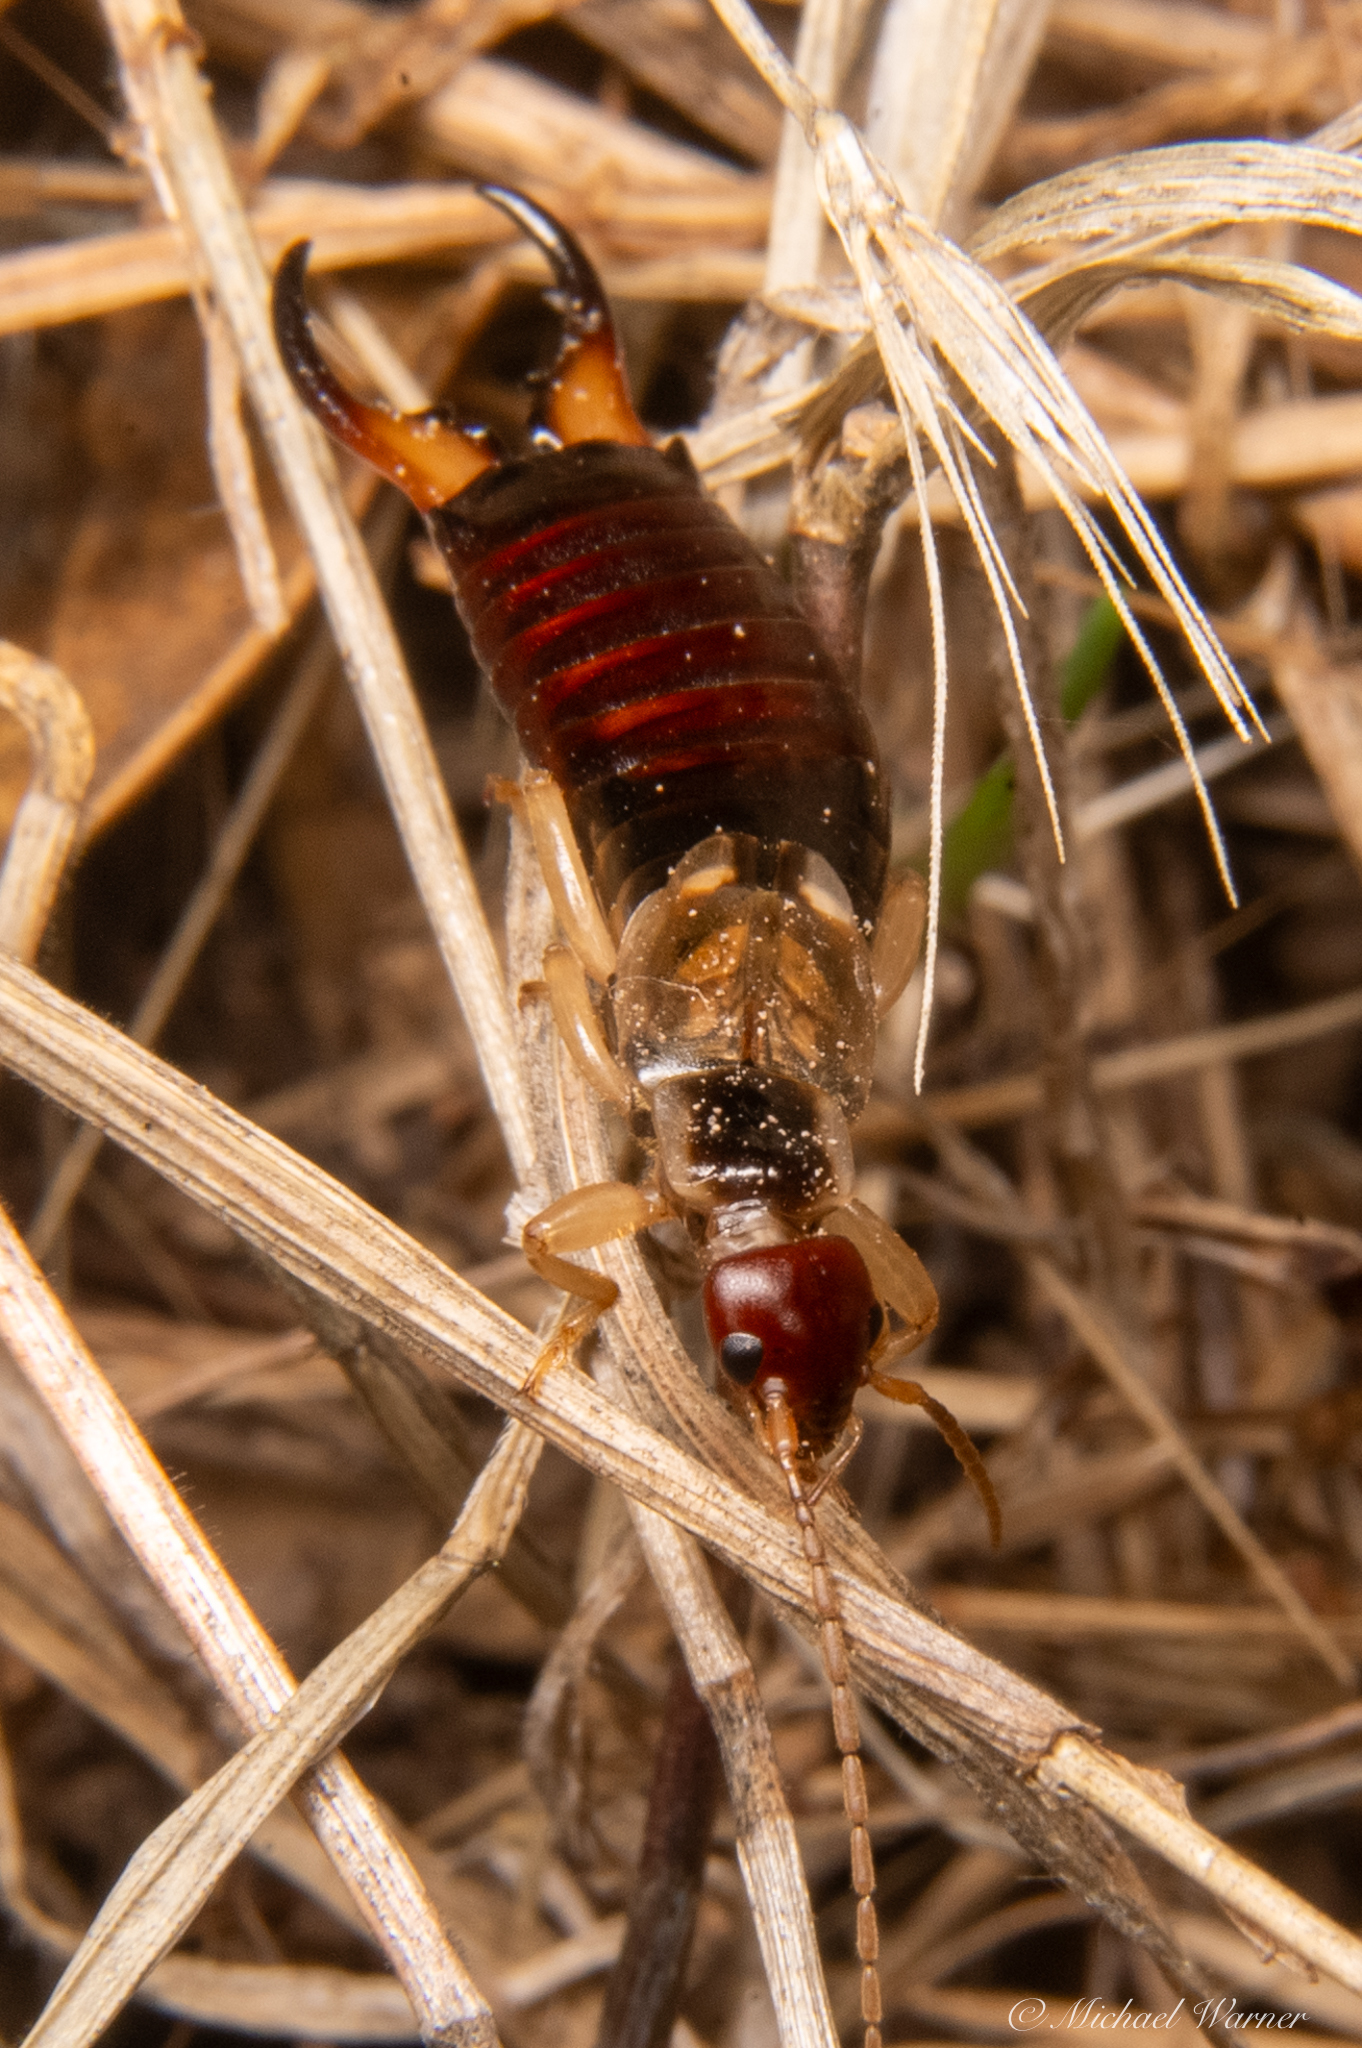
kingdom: Animalia
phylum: Arthropoda
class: Insecta
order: Dermaptera
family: Forficulidae
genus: Forficula
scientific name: Forficula dentata
